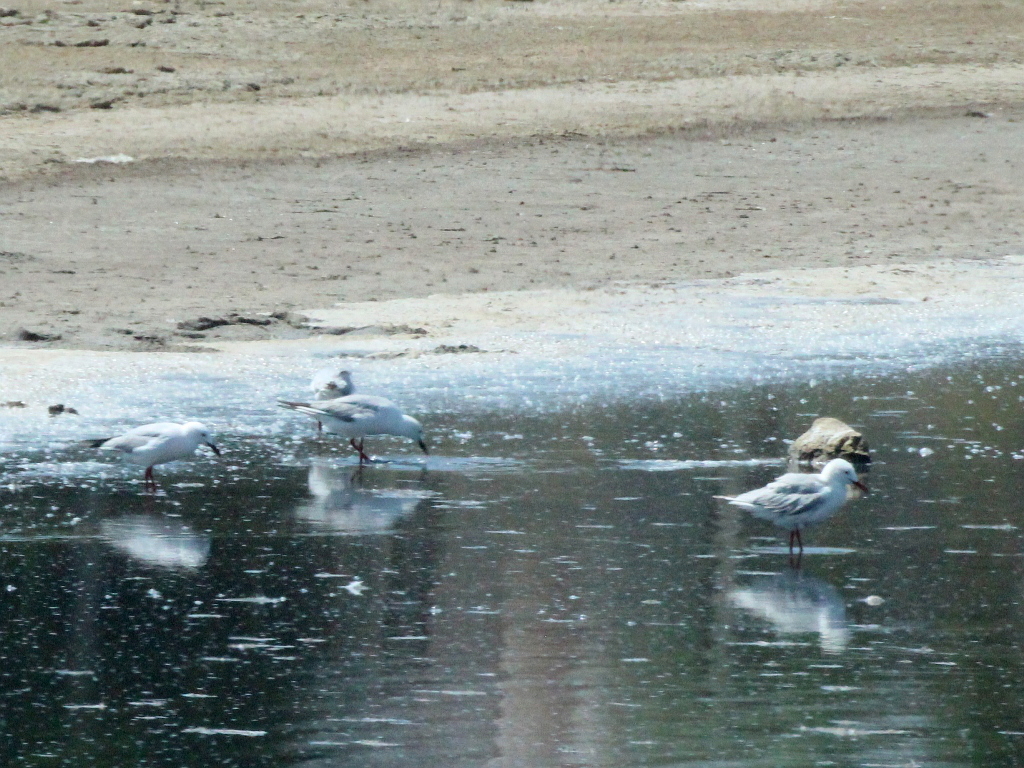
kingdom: Animalia
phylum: Chordata
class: Aves
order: Charadriiformes
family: Laridae
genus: Chroicocephalus
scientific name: Chroicocephalus genei
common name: Slender-billed gull
